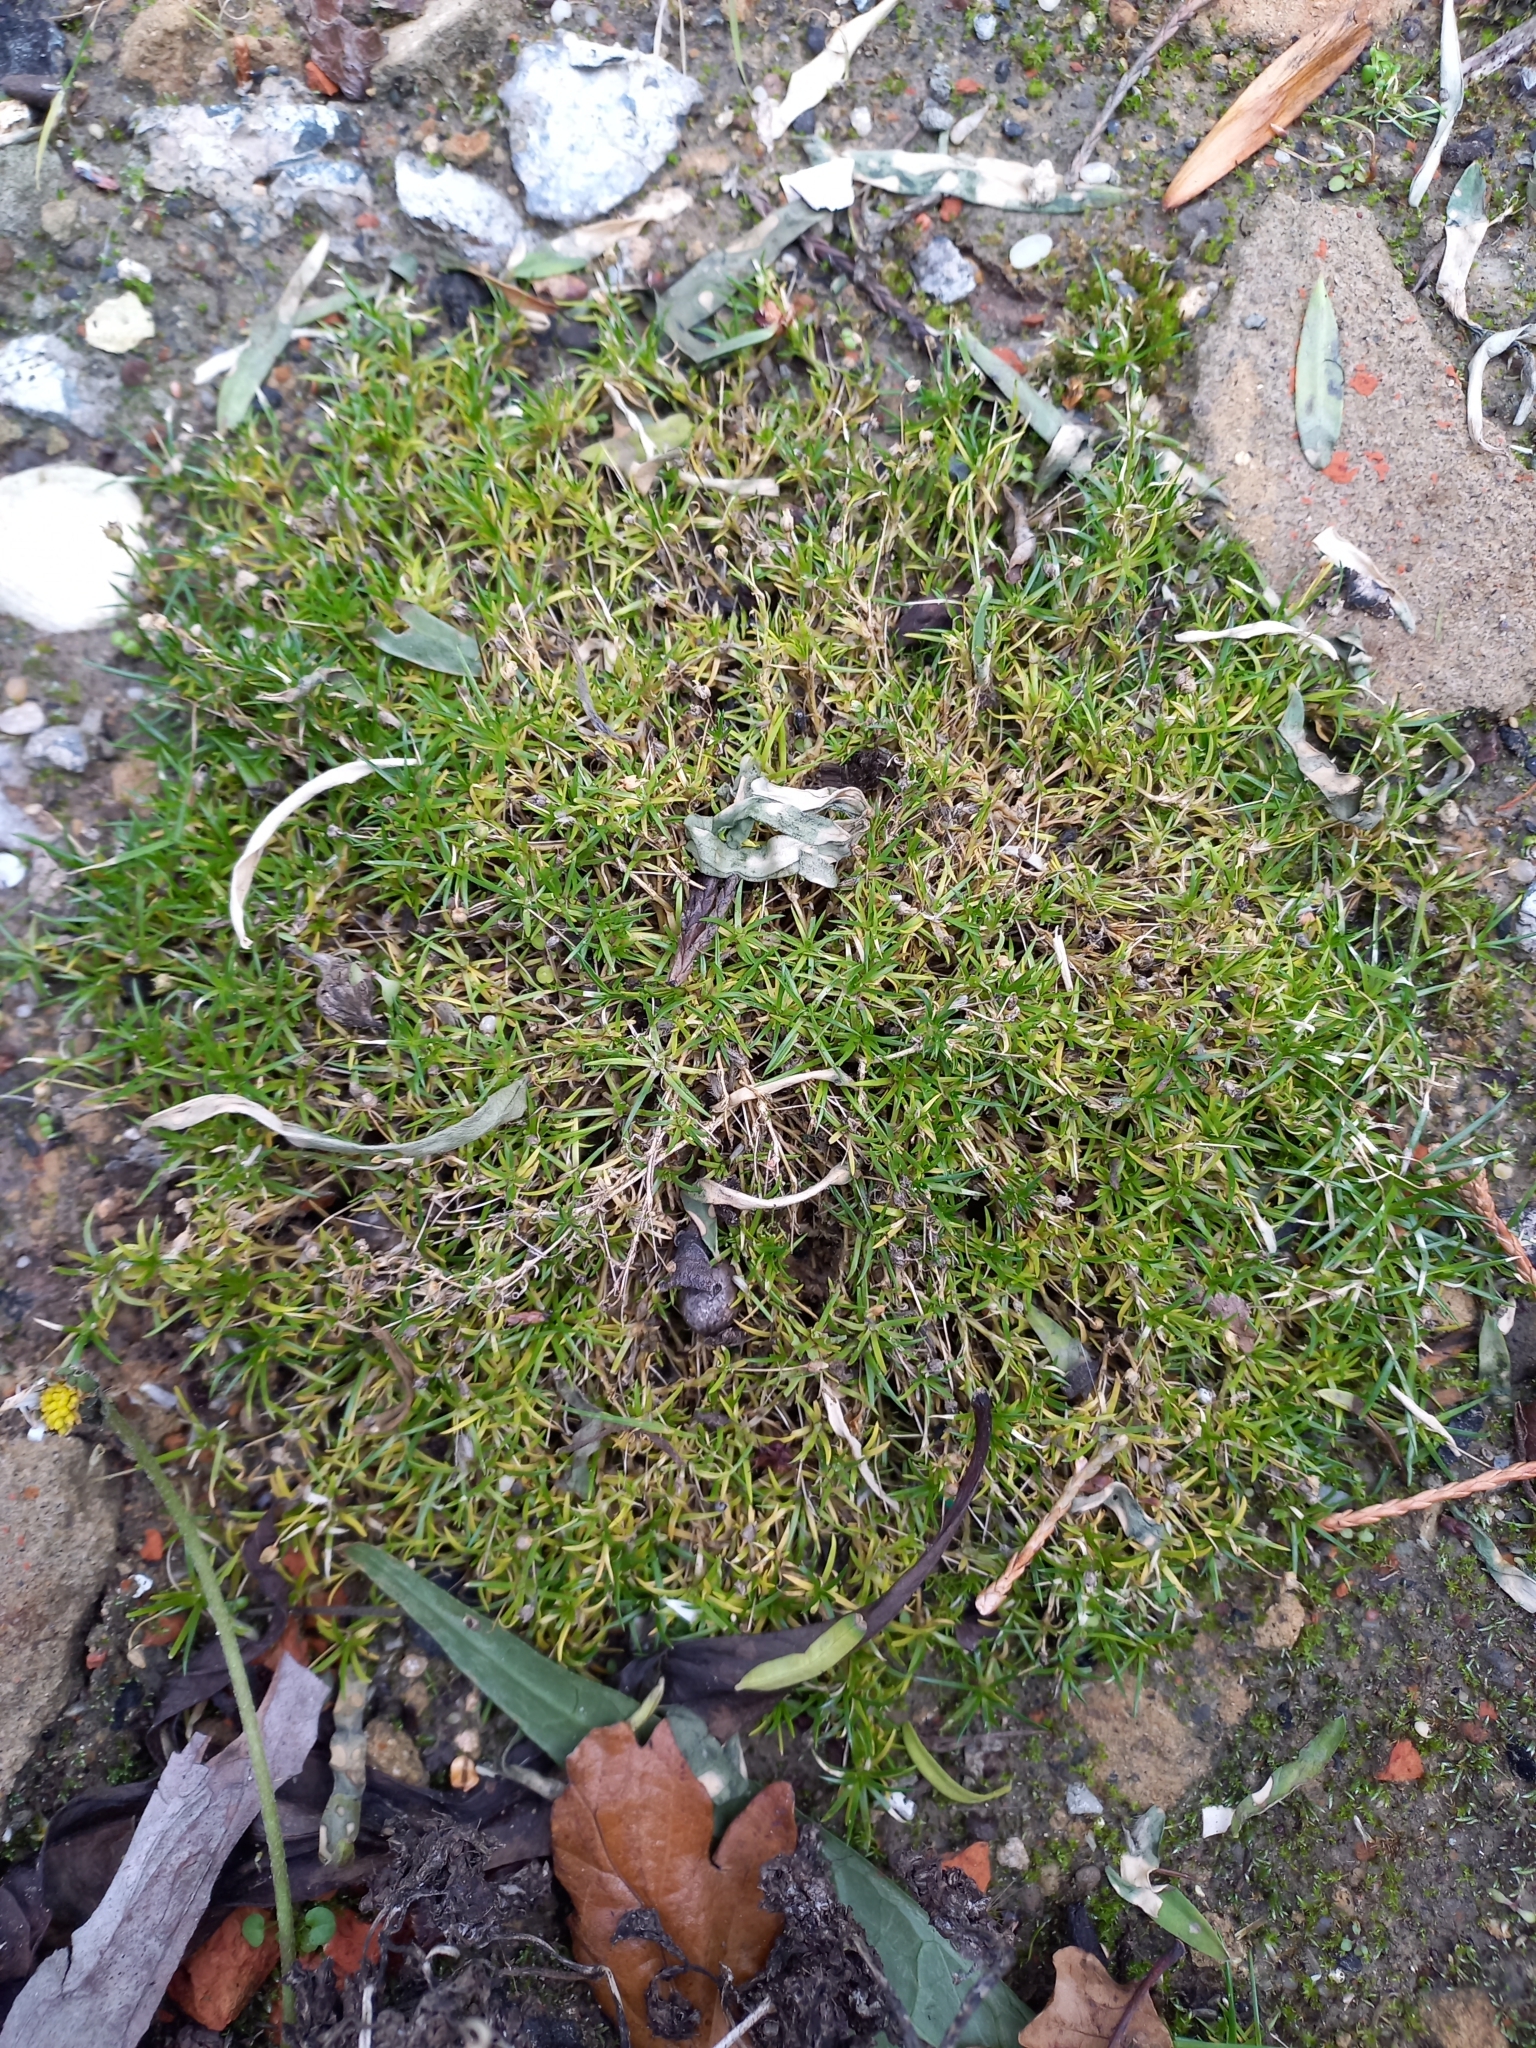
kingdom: Plantae
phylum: Tracheophyta
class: Magnoliopsida
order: Caryophyllales
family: Caryophyllaceae
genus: Sagina
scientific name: Sagina procumbens
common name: Procumbent pearlwort
